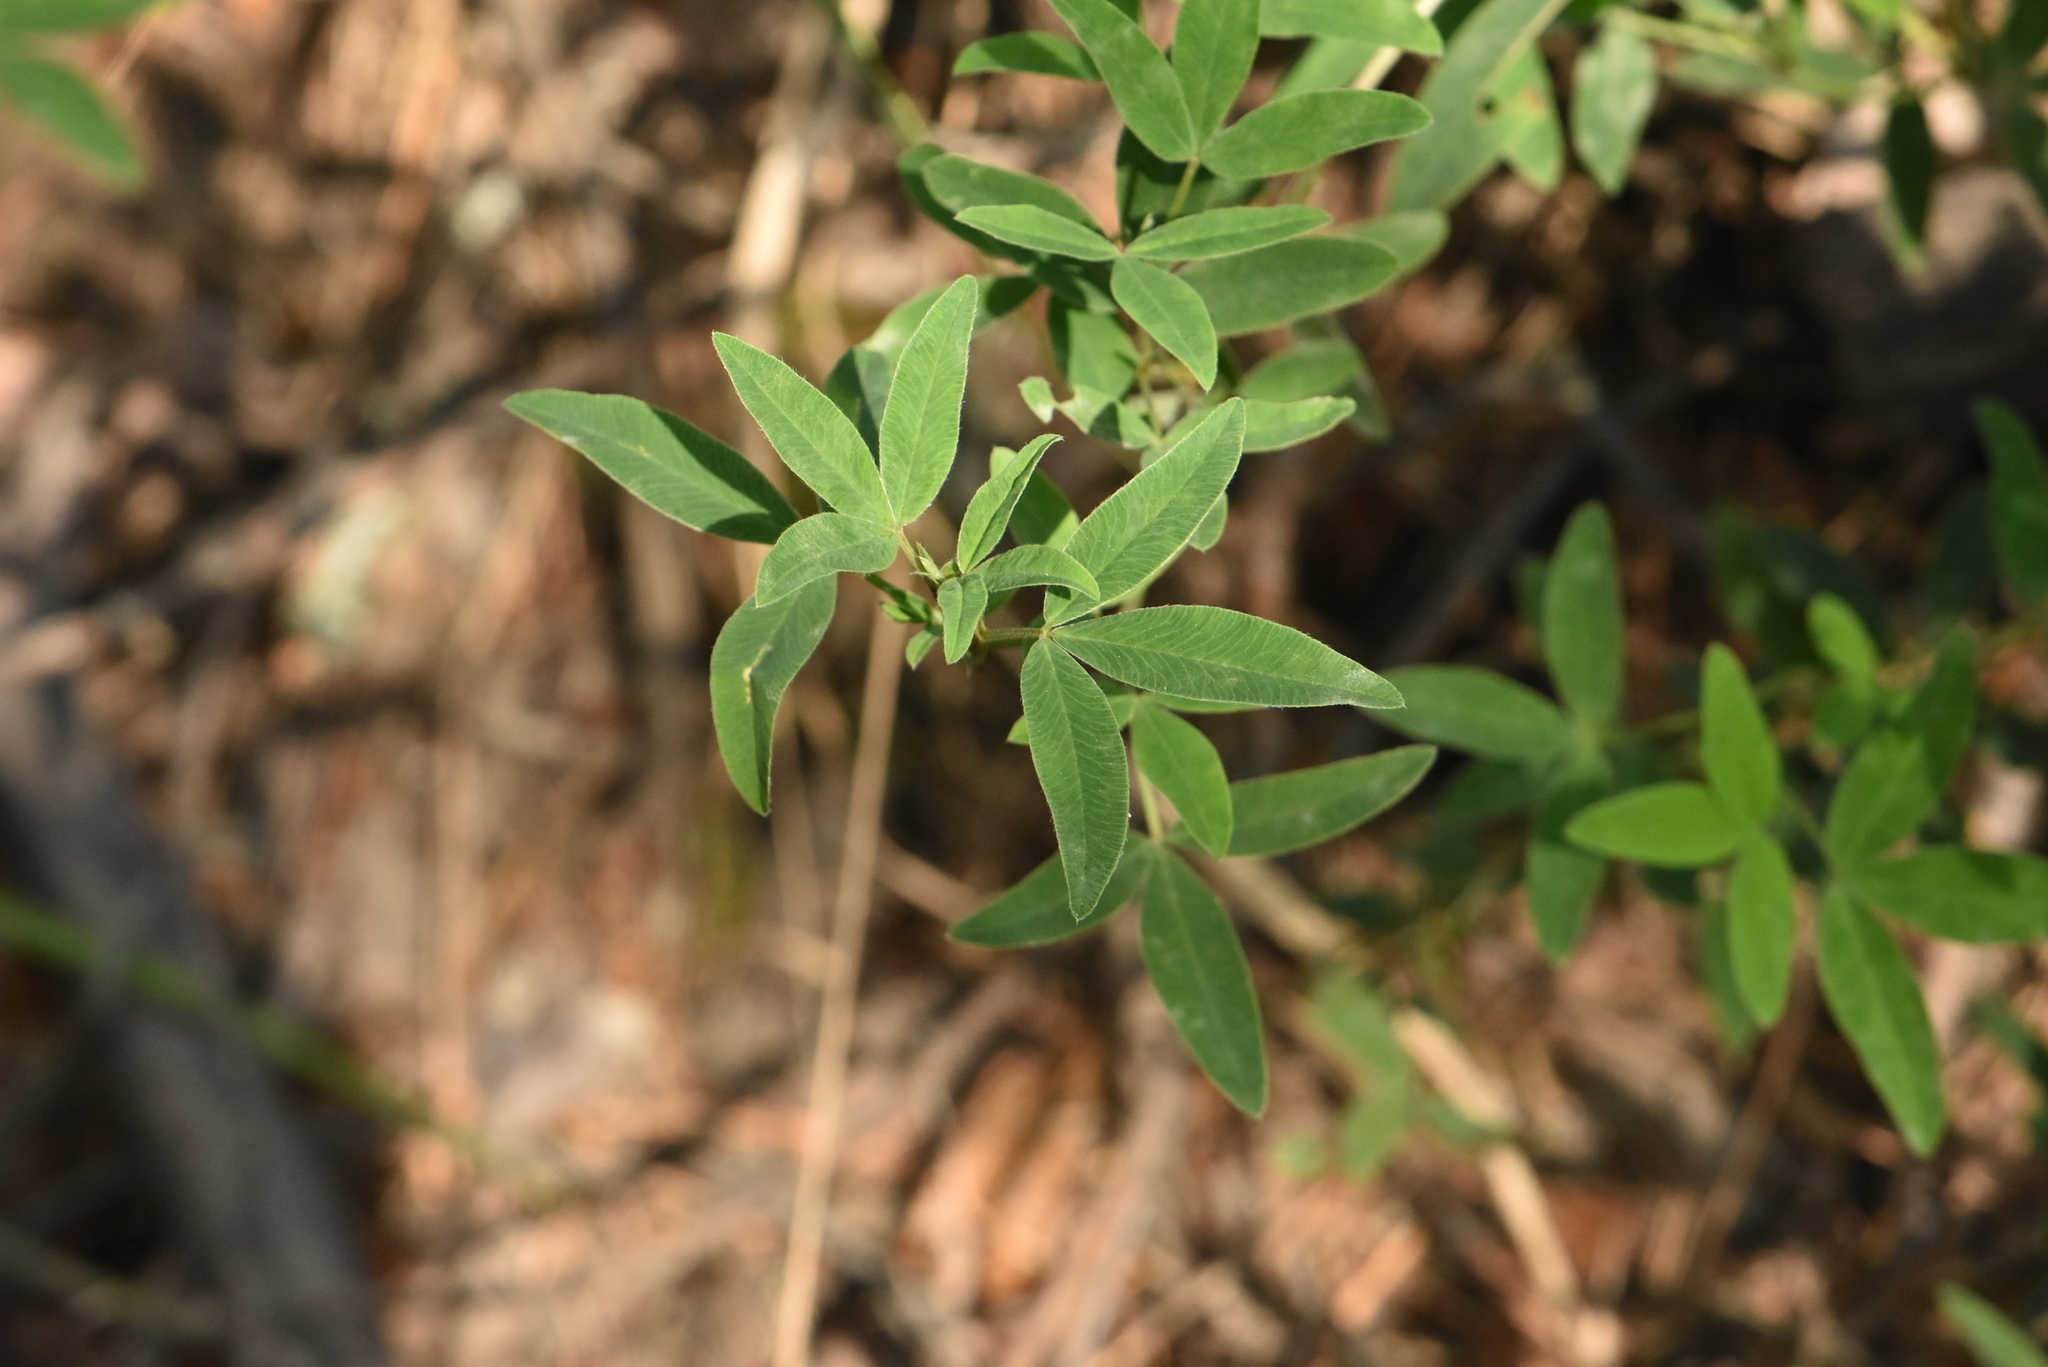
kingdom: Plantae
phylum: Tracheophyta
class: Magnoliopsida
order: Fabales
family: Fabaceae
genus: Trifolium
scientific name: Trifolium medium
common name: Zigzag clover
